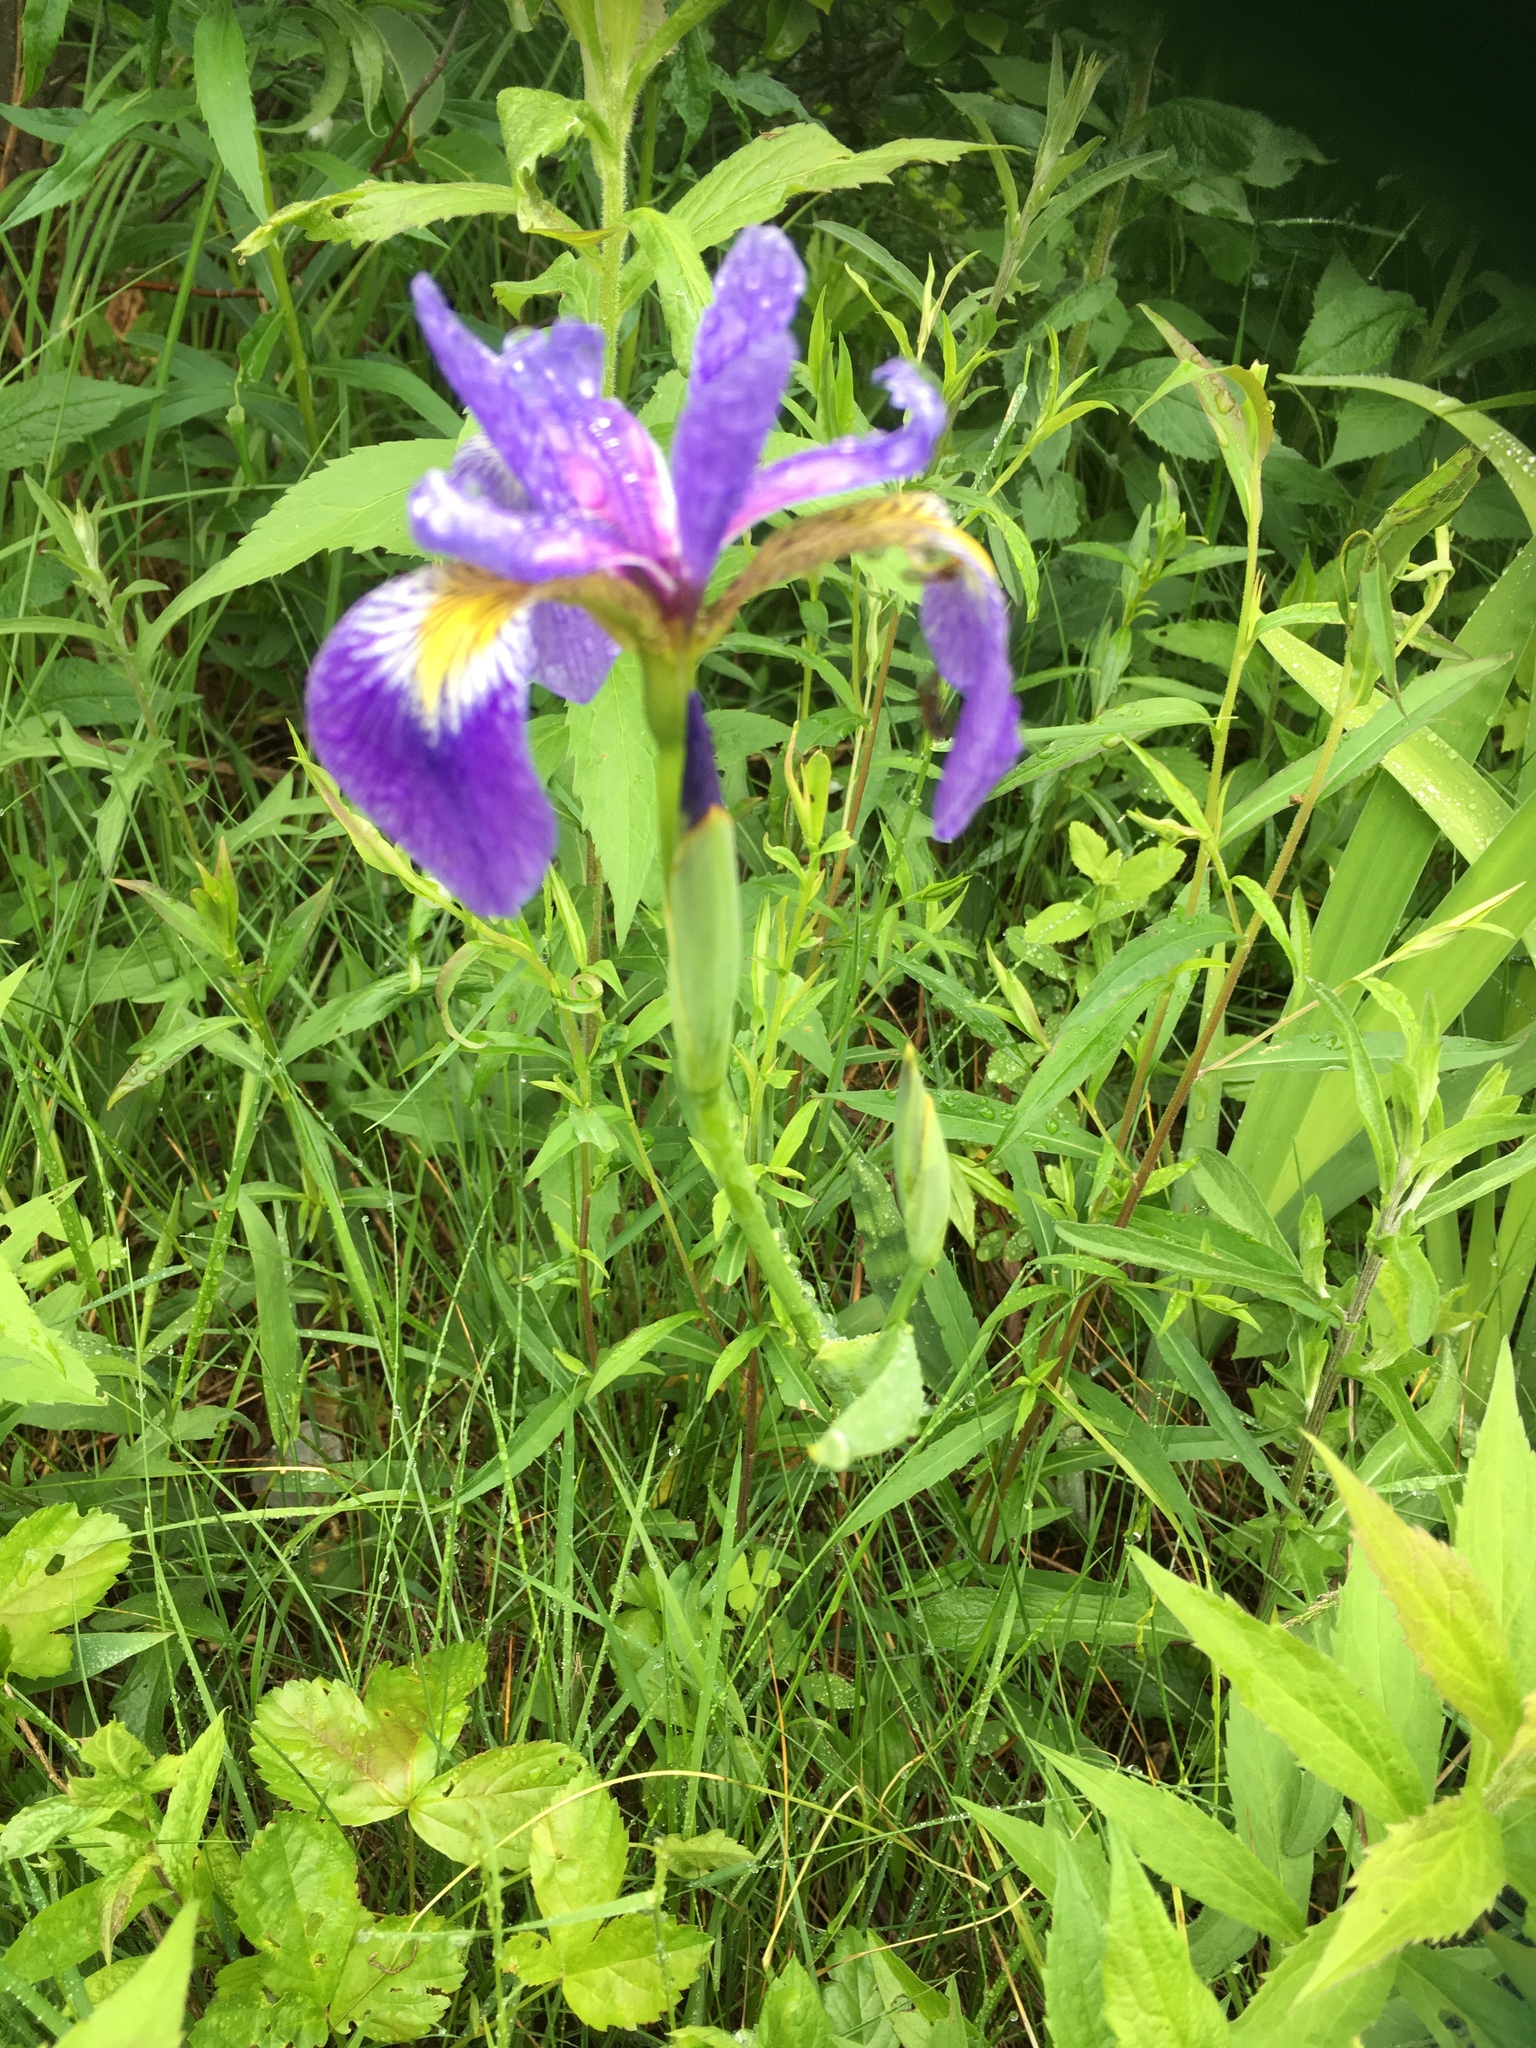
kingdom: Plantae
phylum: Tracheophyta
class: Liliopsida
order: Asparagales
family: Iridaceae
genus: Iris
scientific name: Iris versicolor
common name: Purple iris
